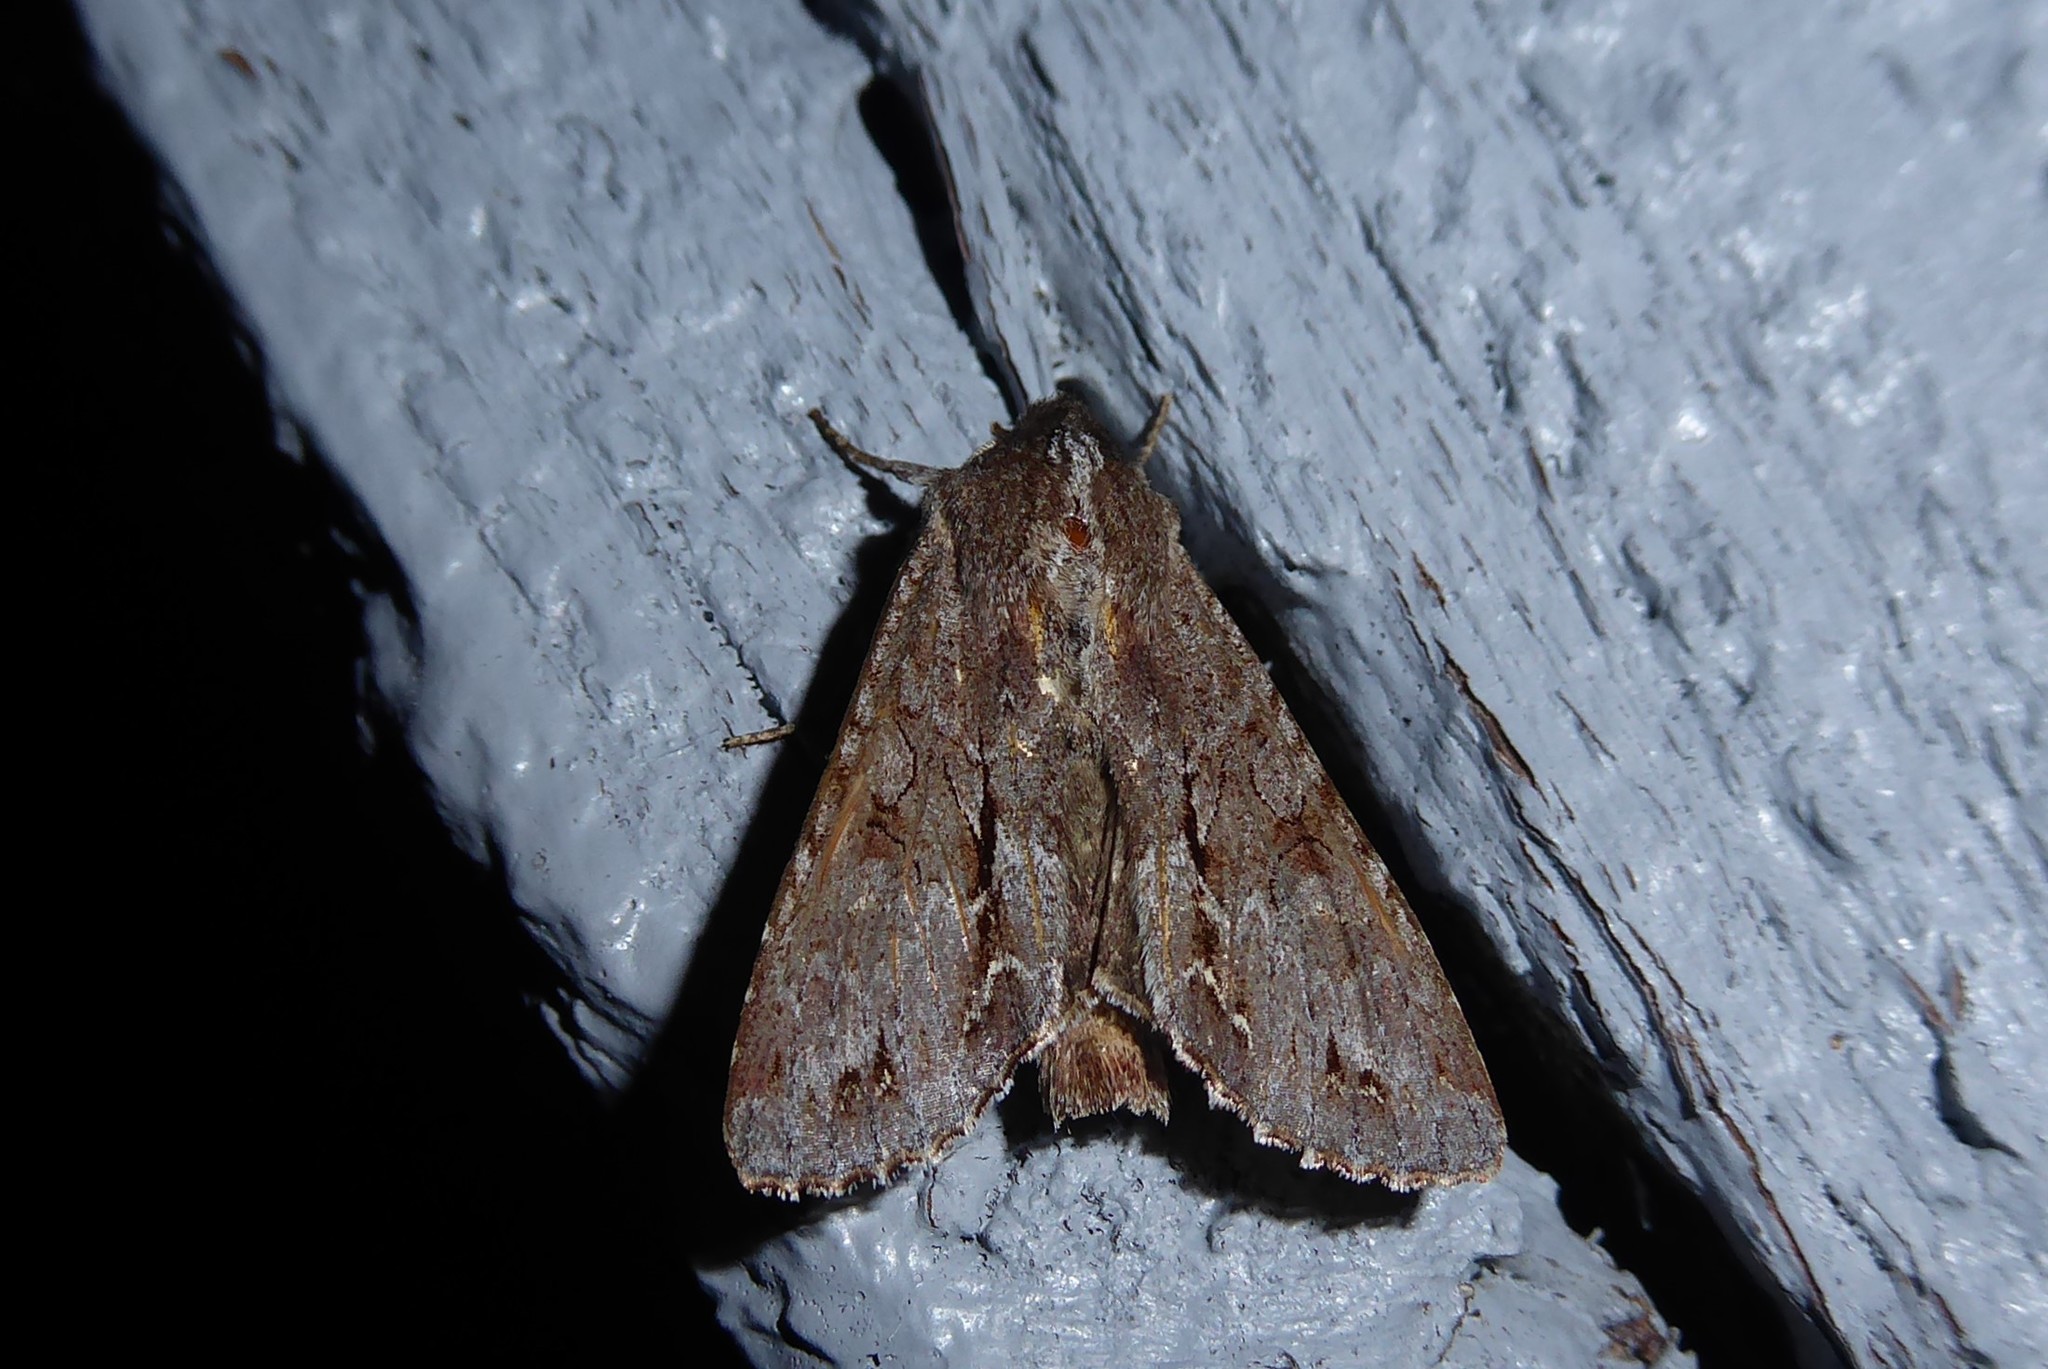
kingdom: Animalia
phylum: Arthropoda
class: Insecta
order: Lepidoptera
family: Noctuidae
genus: Ichneutica
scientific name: Ichneutica
